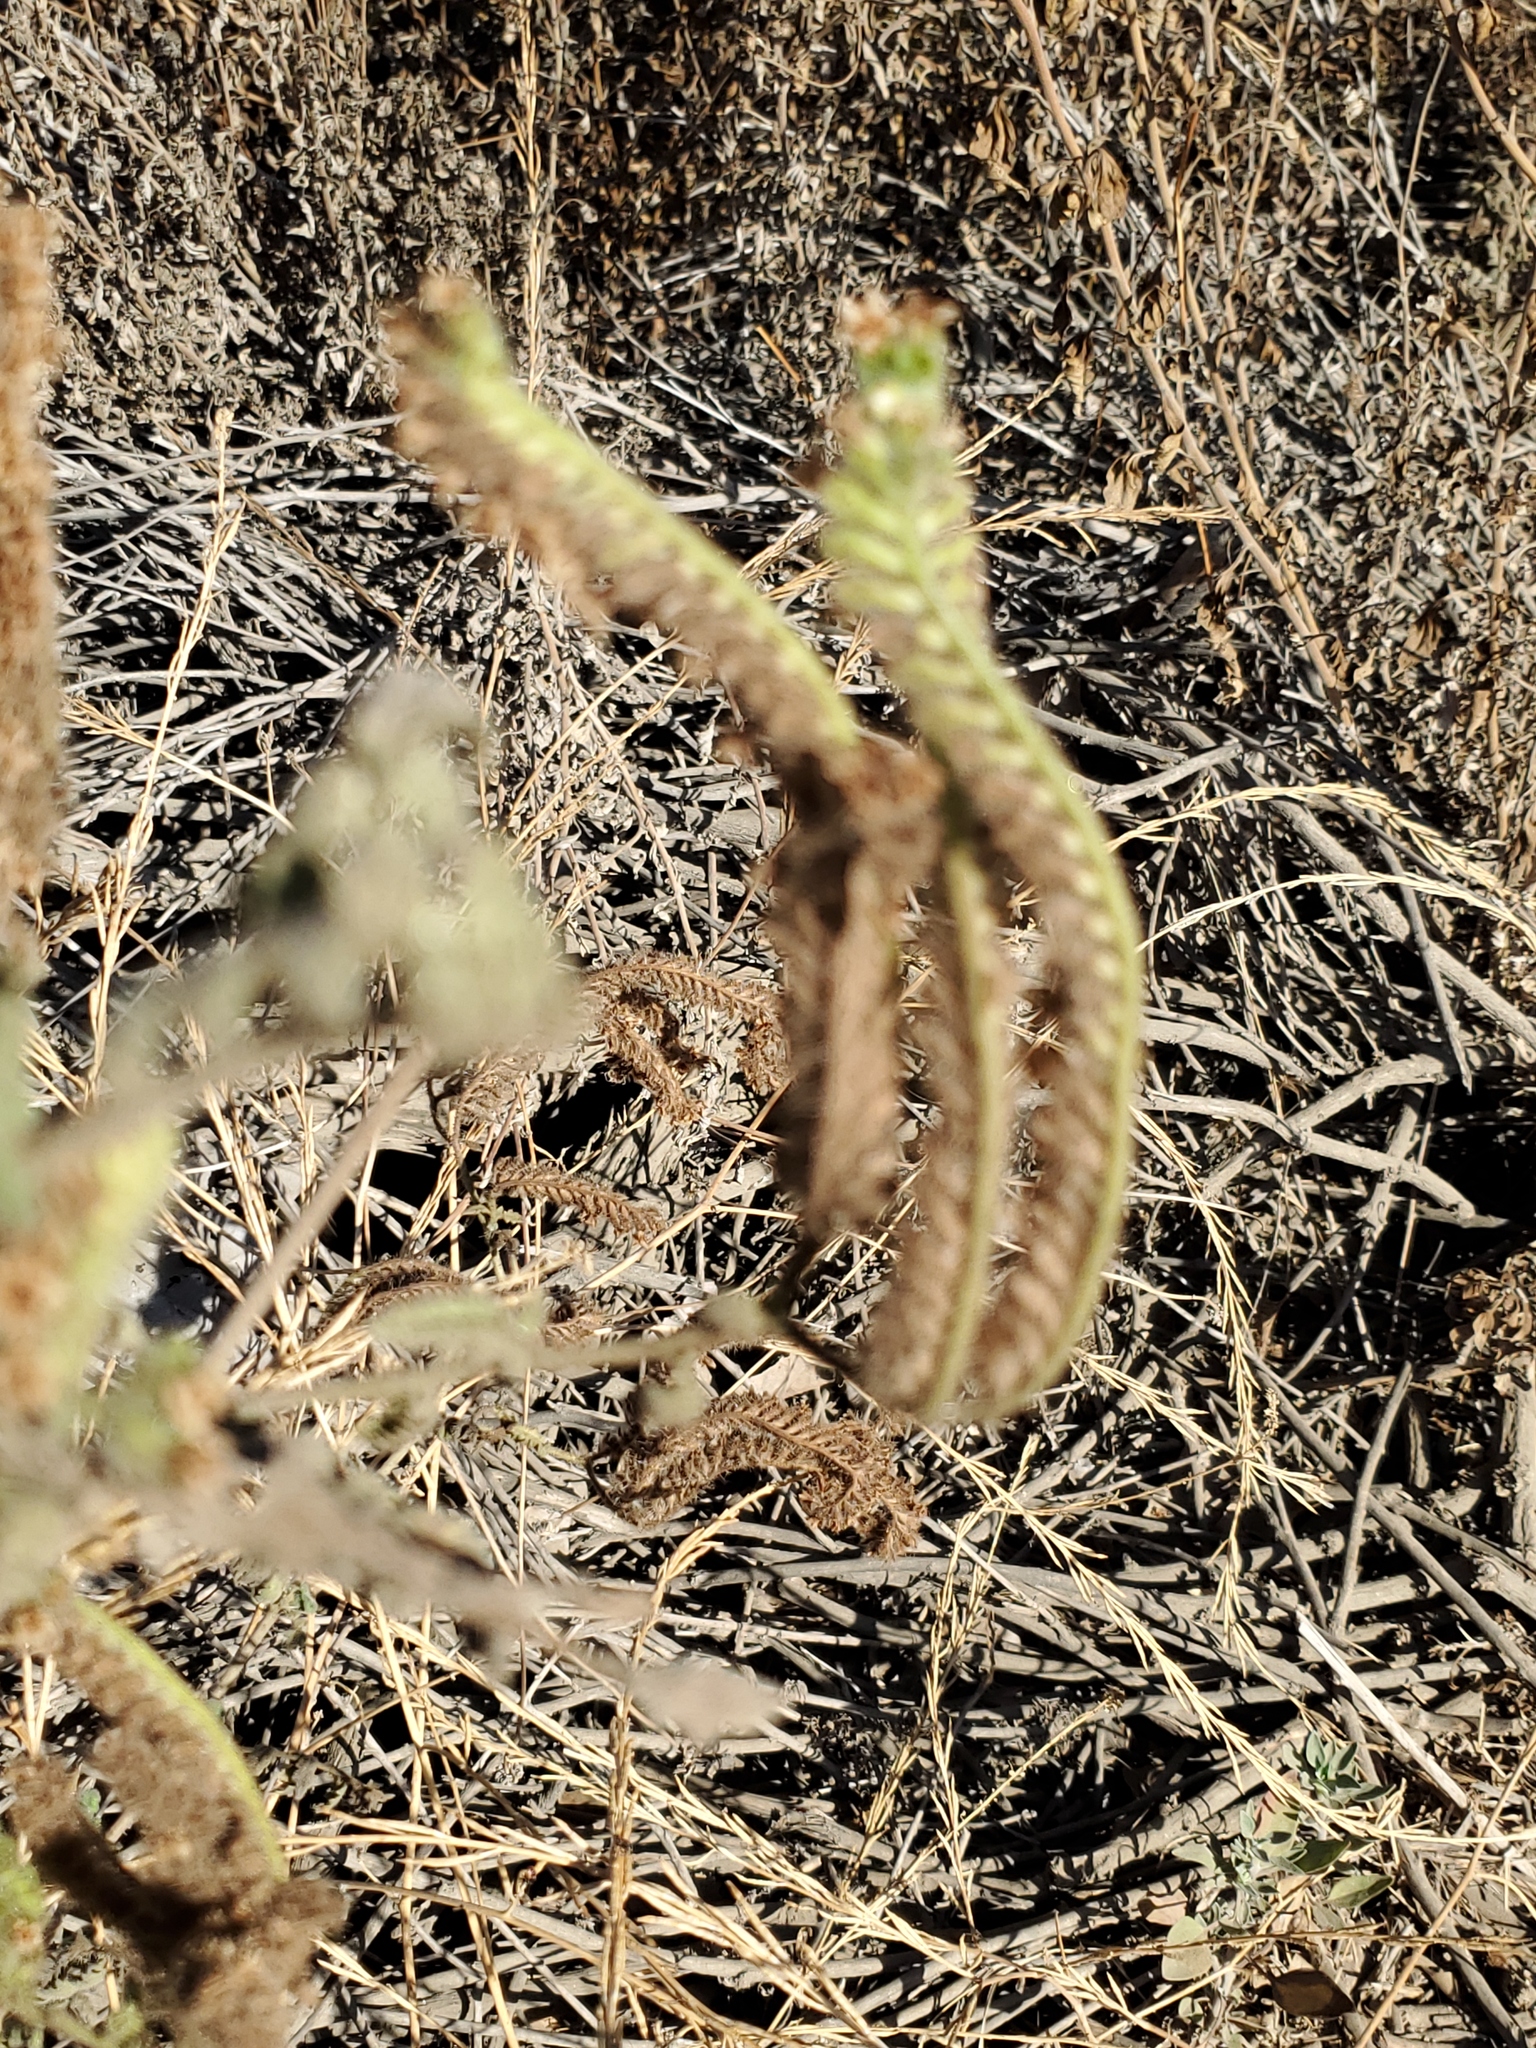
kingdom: Plantae
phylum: Tracheophyta
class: Magnoliopsida
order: Boraginales
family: Hydrophyllaceae
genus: Phacelia
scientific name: Phacelia ramosissima
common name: Branching phacelia
